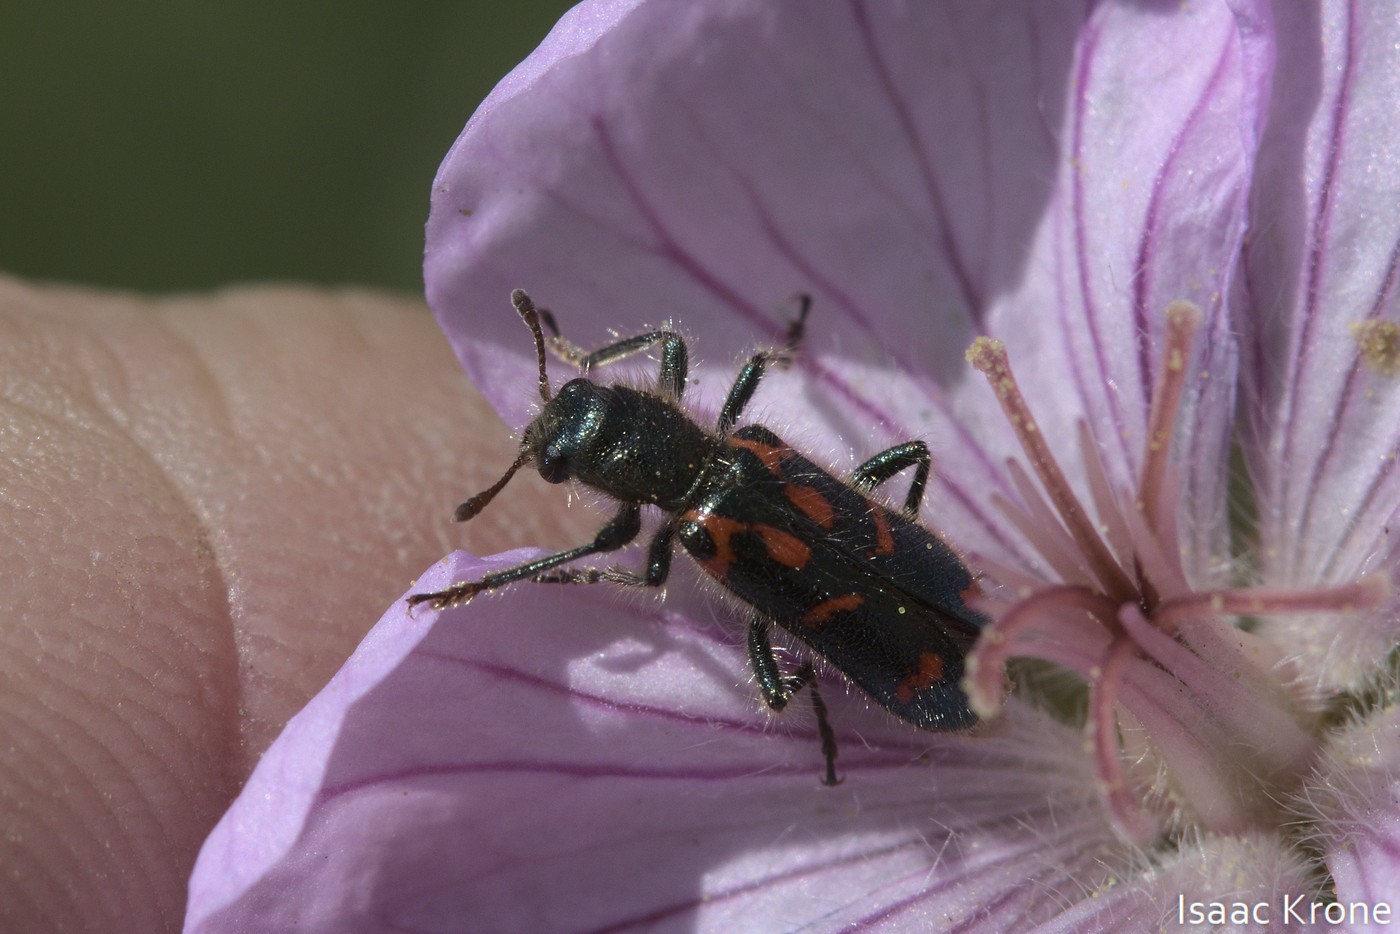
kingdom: Animalia
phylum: Arthropoda
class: Insecta
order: Coleoptera
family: Cleridae
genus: Trichodes
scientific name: Trichodes ornatus
